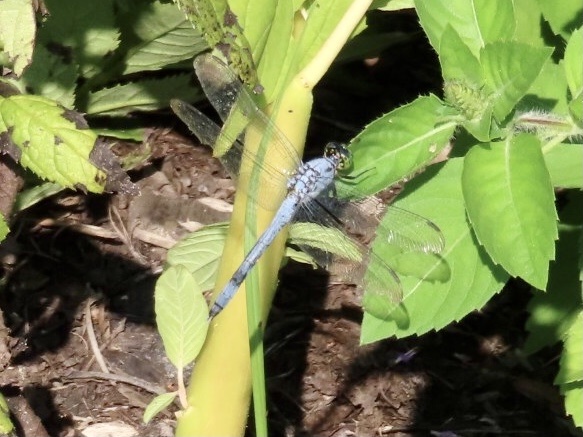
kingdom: Animalia
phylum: Arthropoda
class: Insecta
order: Odonata
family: Libellulidae
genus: Erythemis
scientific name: Erythemis simplicicollis
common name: Eastern pondhawk
